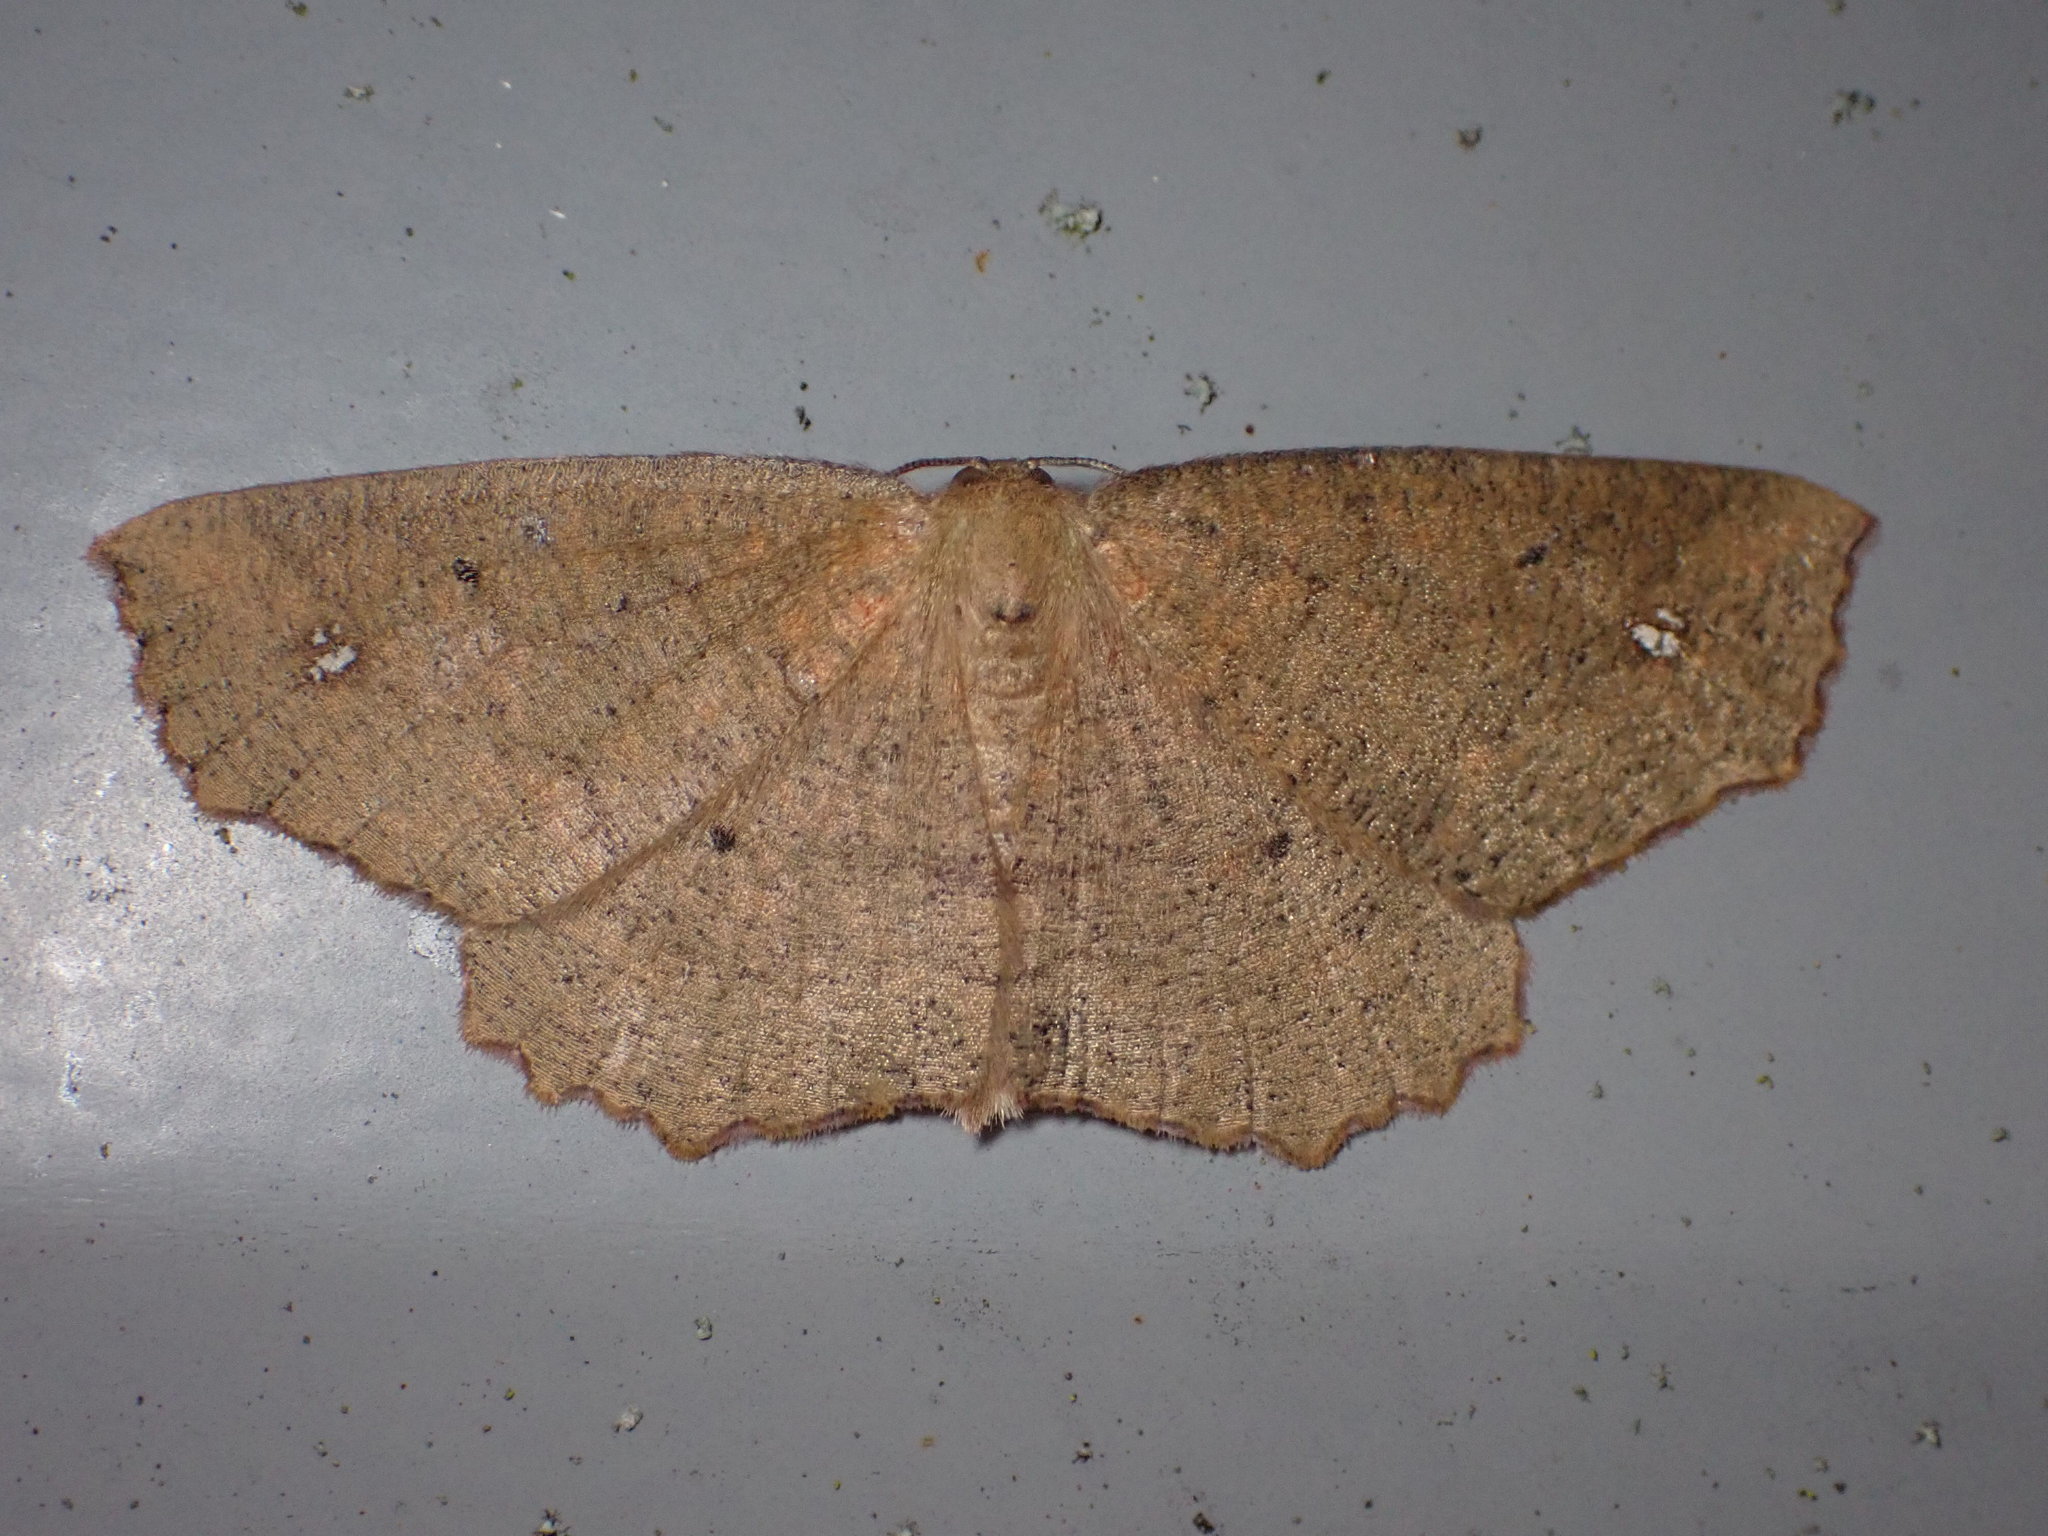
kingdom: Animalia
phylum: Arthropoda
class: Insecta
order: Lepidoptera
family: Geometridae
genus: Xyridacma
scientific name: Xyridacma ustaria
